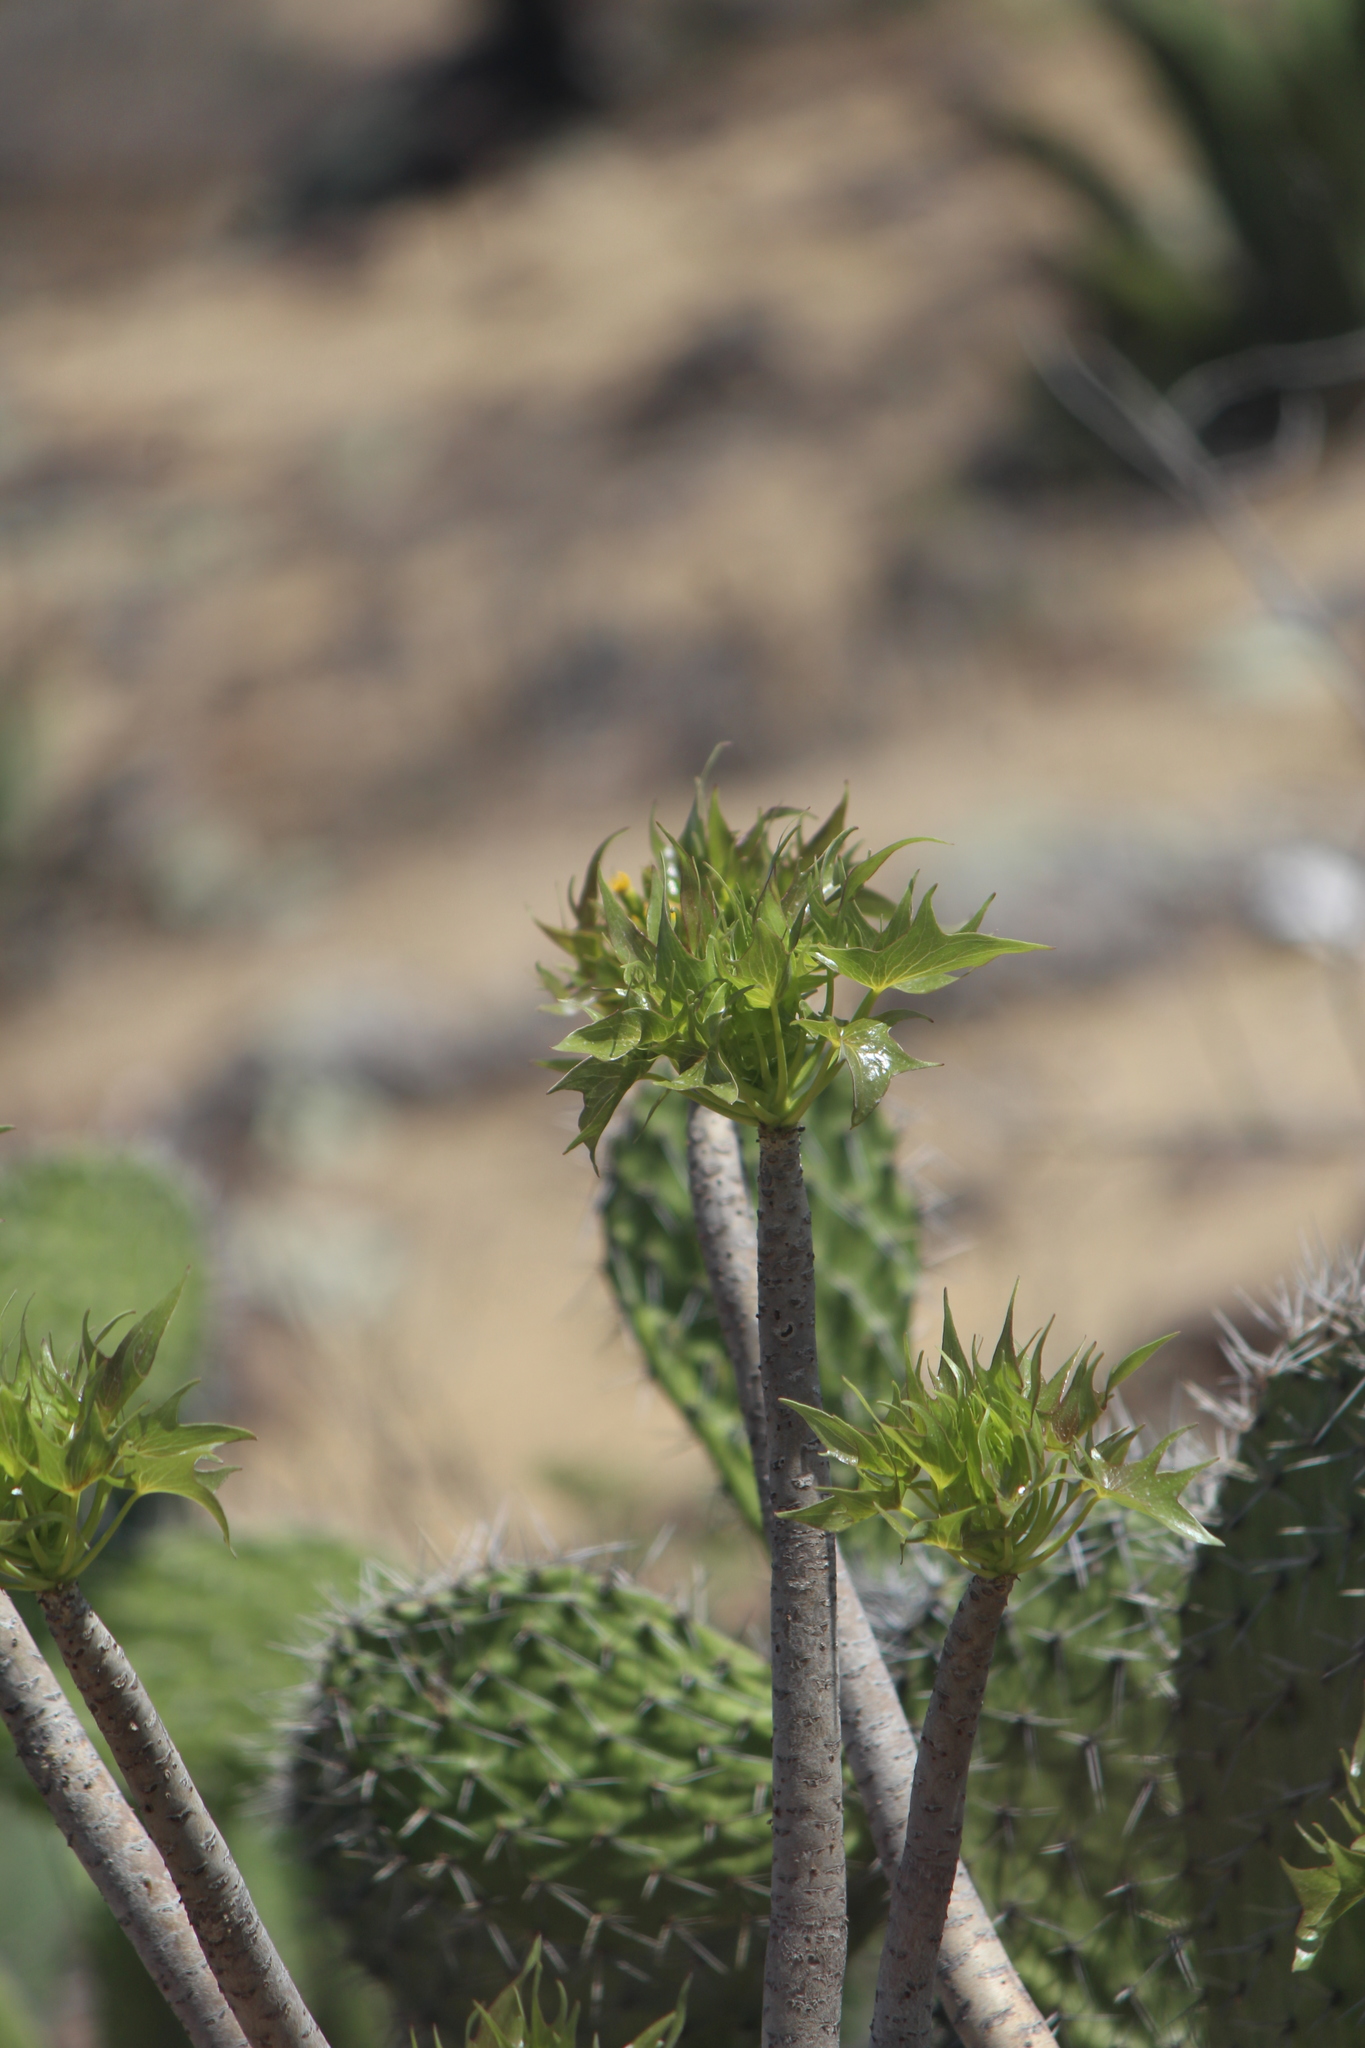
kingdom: Plantae
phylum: Tracheophyta
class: Magnoliopsida
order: Asterales
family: Asteraceae
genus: Pittocaulon
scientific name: Pittocaulon praecox
